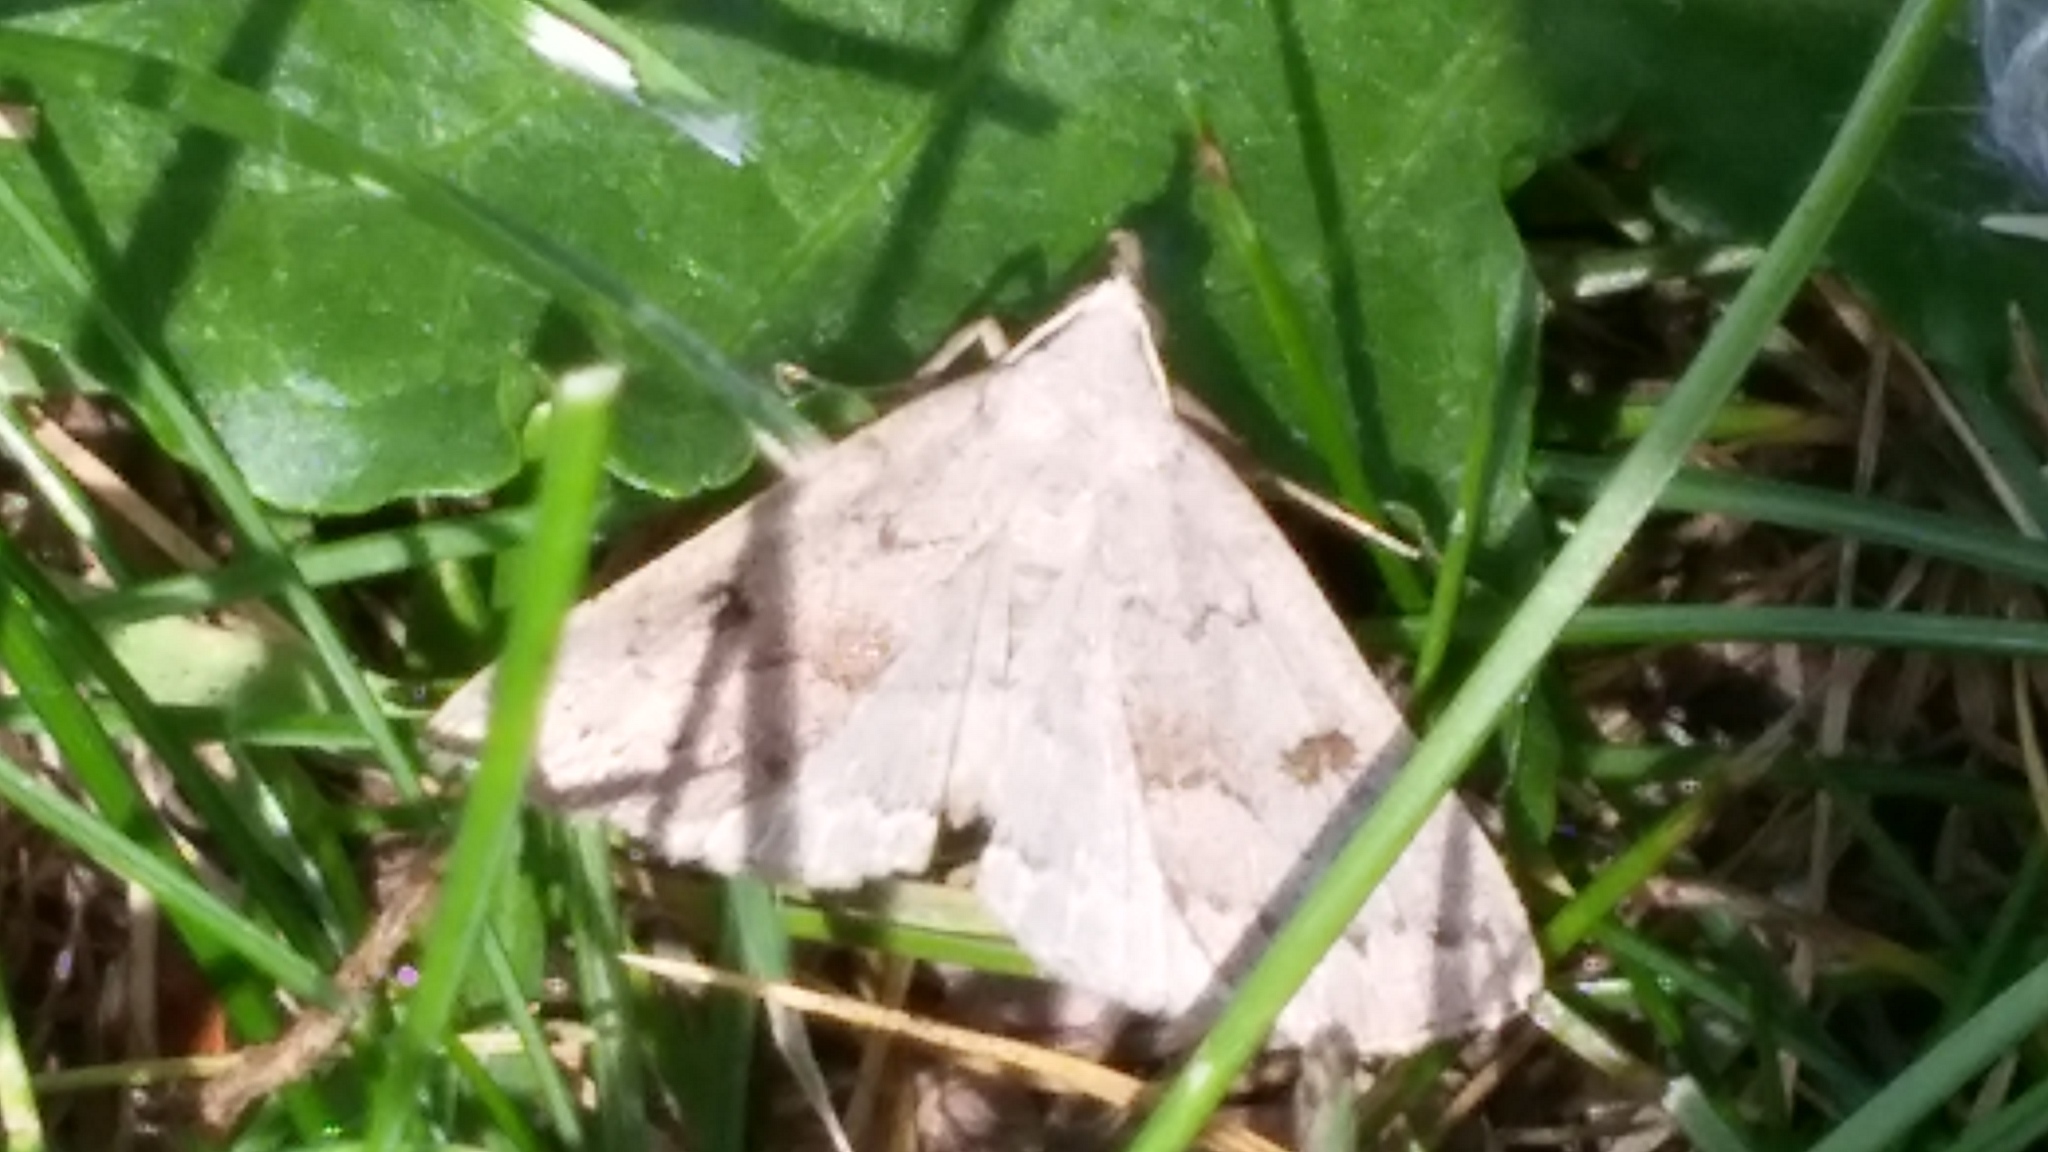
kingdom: Animalia
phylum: Arthropoda
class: Insecta
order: Lepidoptera
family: Erebidae
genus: Macrochilo
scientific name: Macrochilo morbidalis
